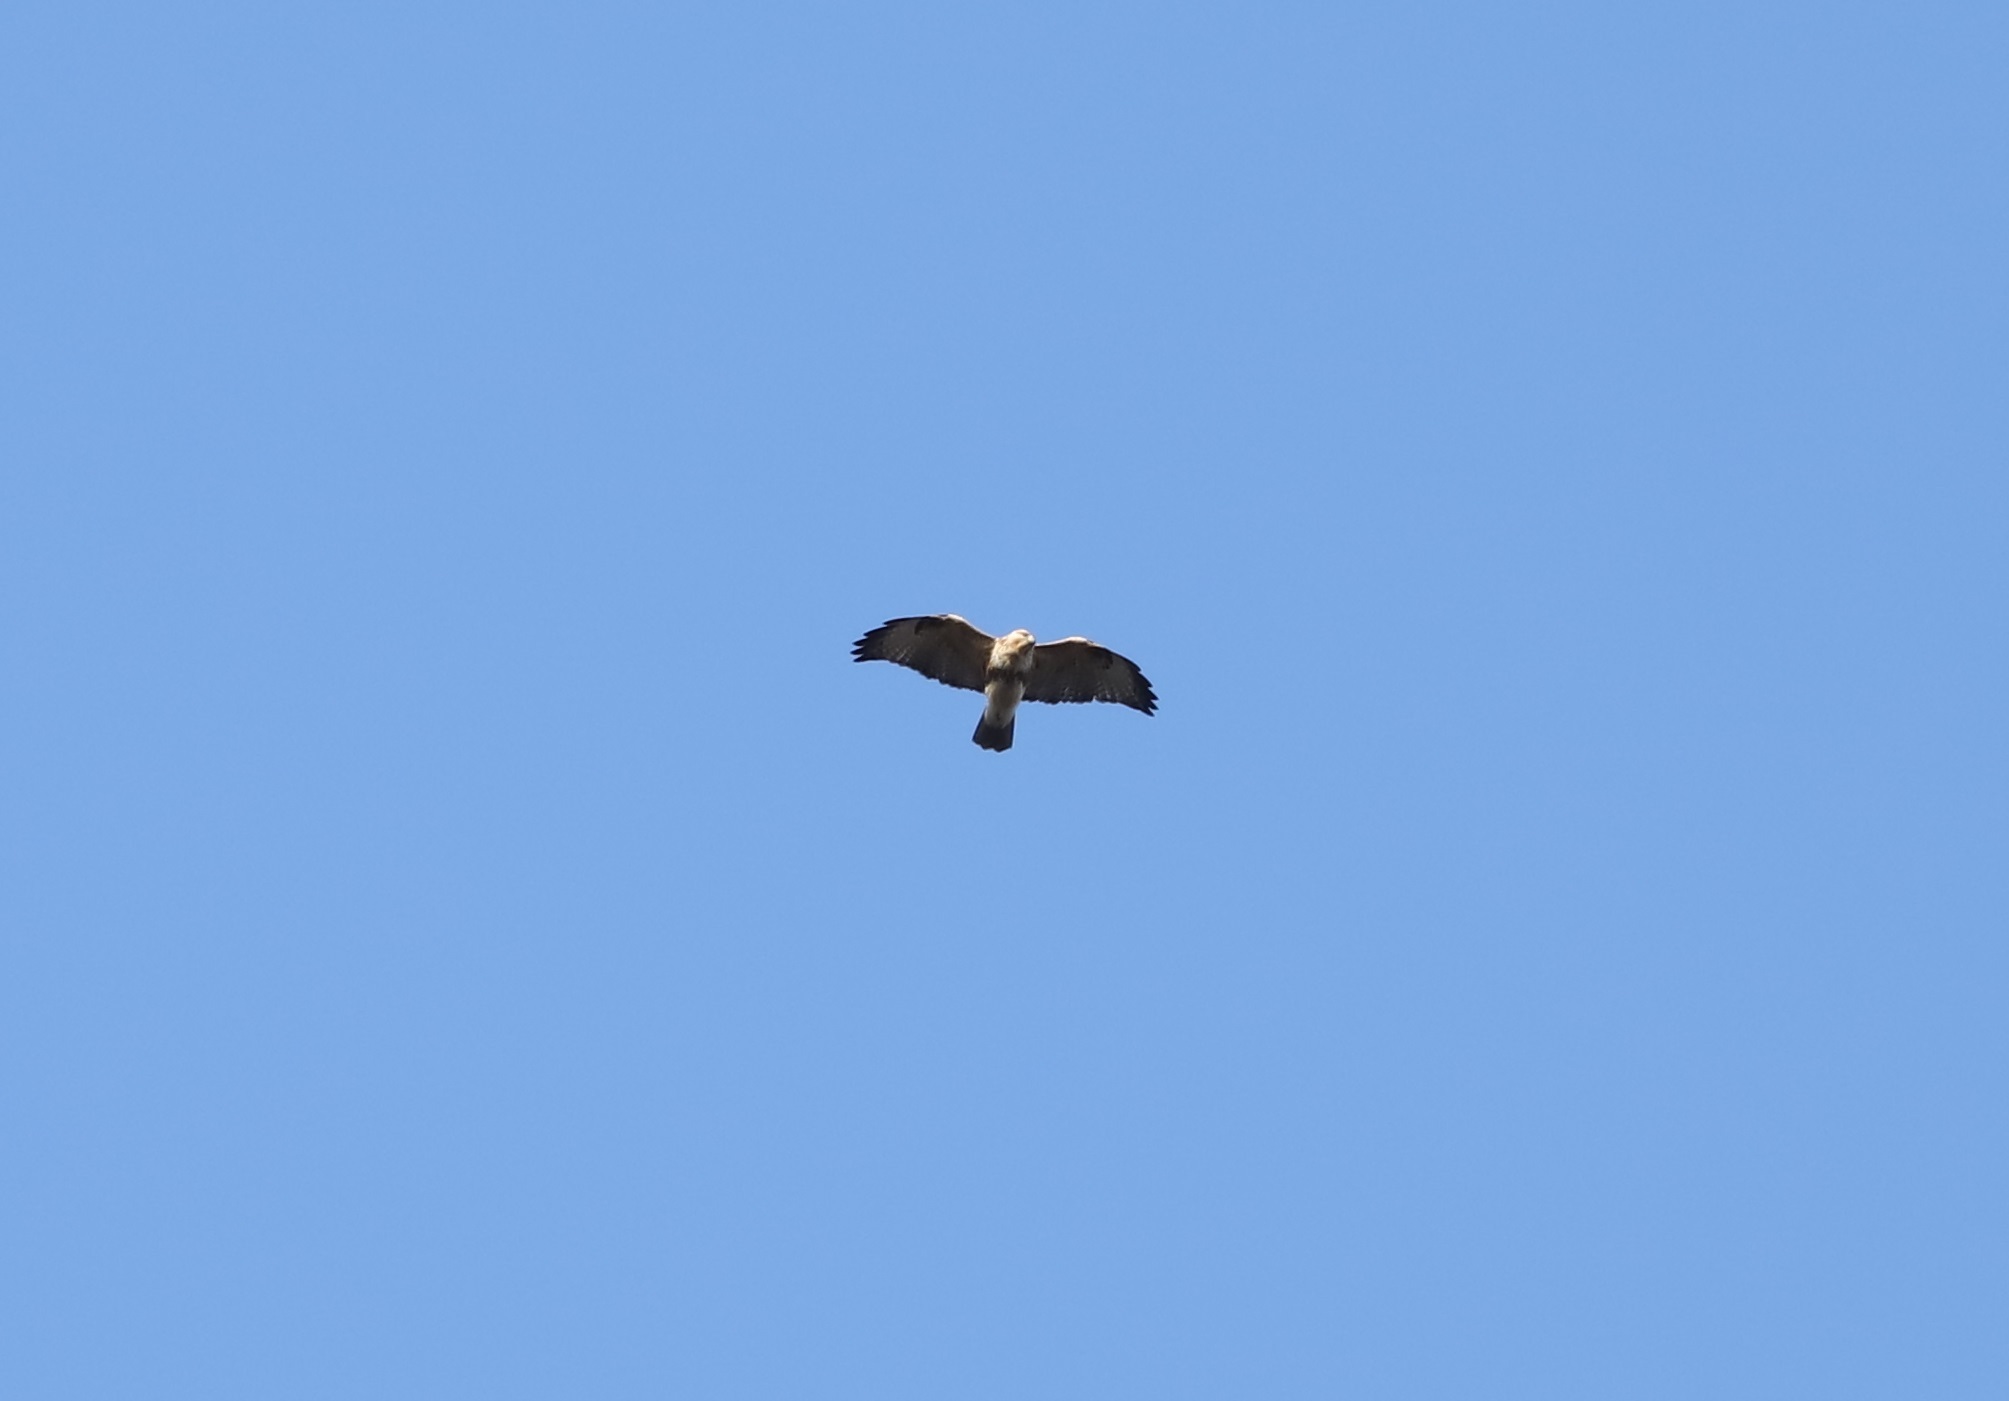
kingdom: Animalia
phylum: Chordata
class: Aves
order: Accipitriformes
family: Accipitridae
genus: Buteo
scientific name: Buteo japonicus
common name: Eastern buzzard
